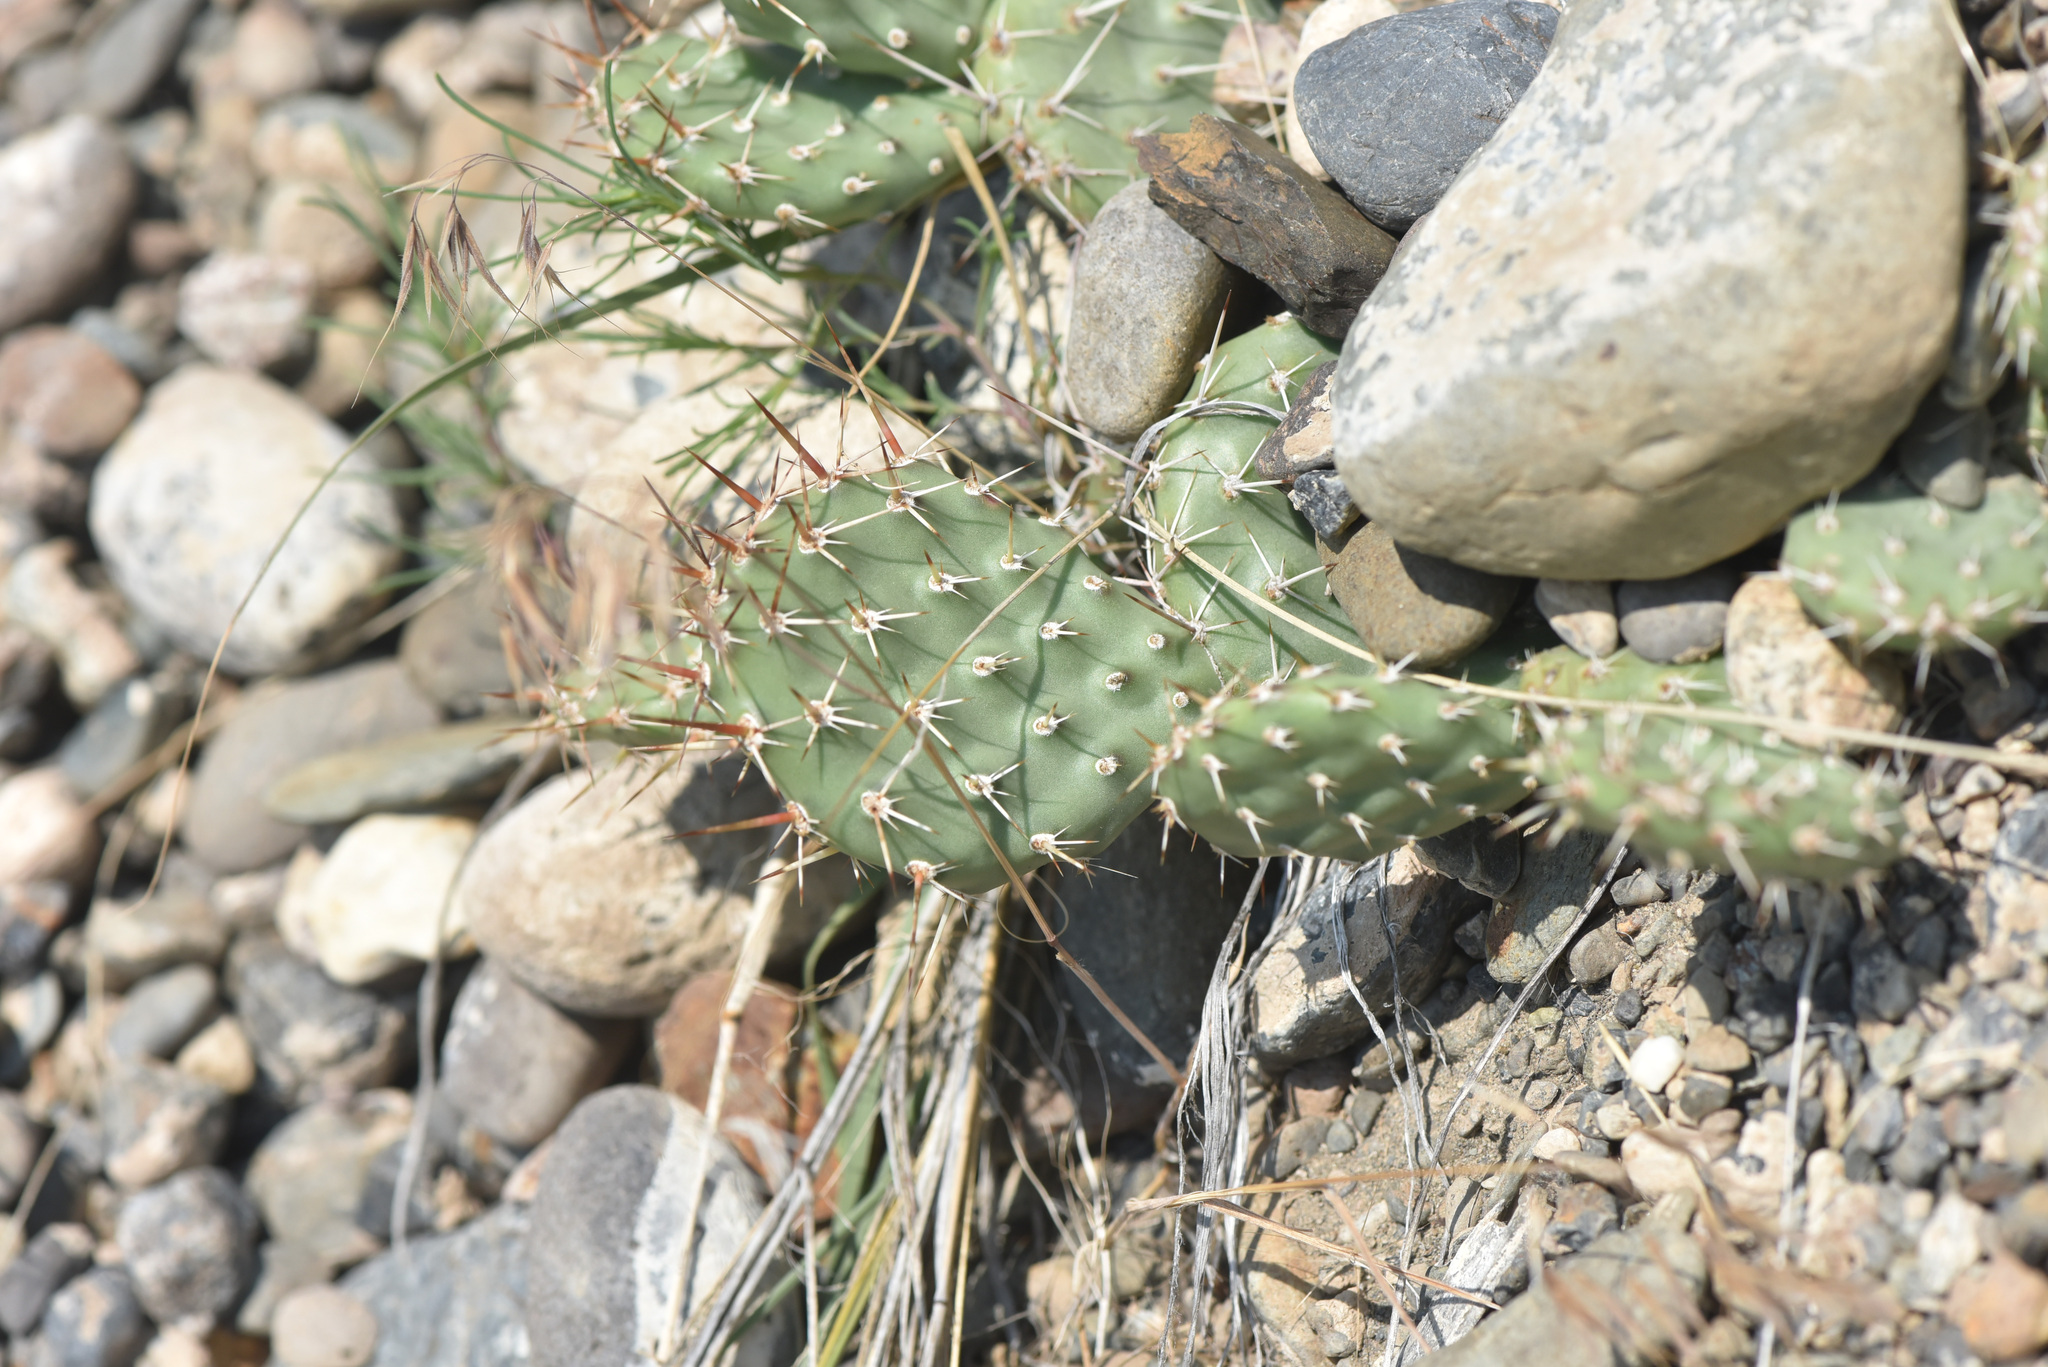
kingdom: Plantae
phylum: Tracheophyta
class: Magnoliopsida
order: Caryophyllales
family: Cactaceae
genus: Opuntia
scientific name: Opuntia columbiana
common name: Columbia prickly-pear
